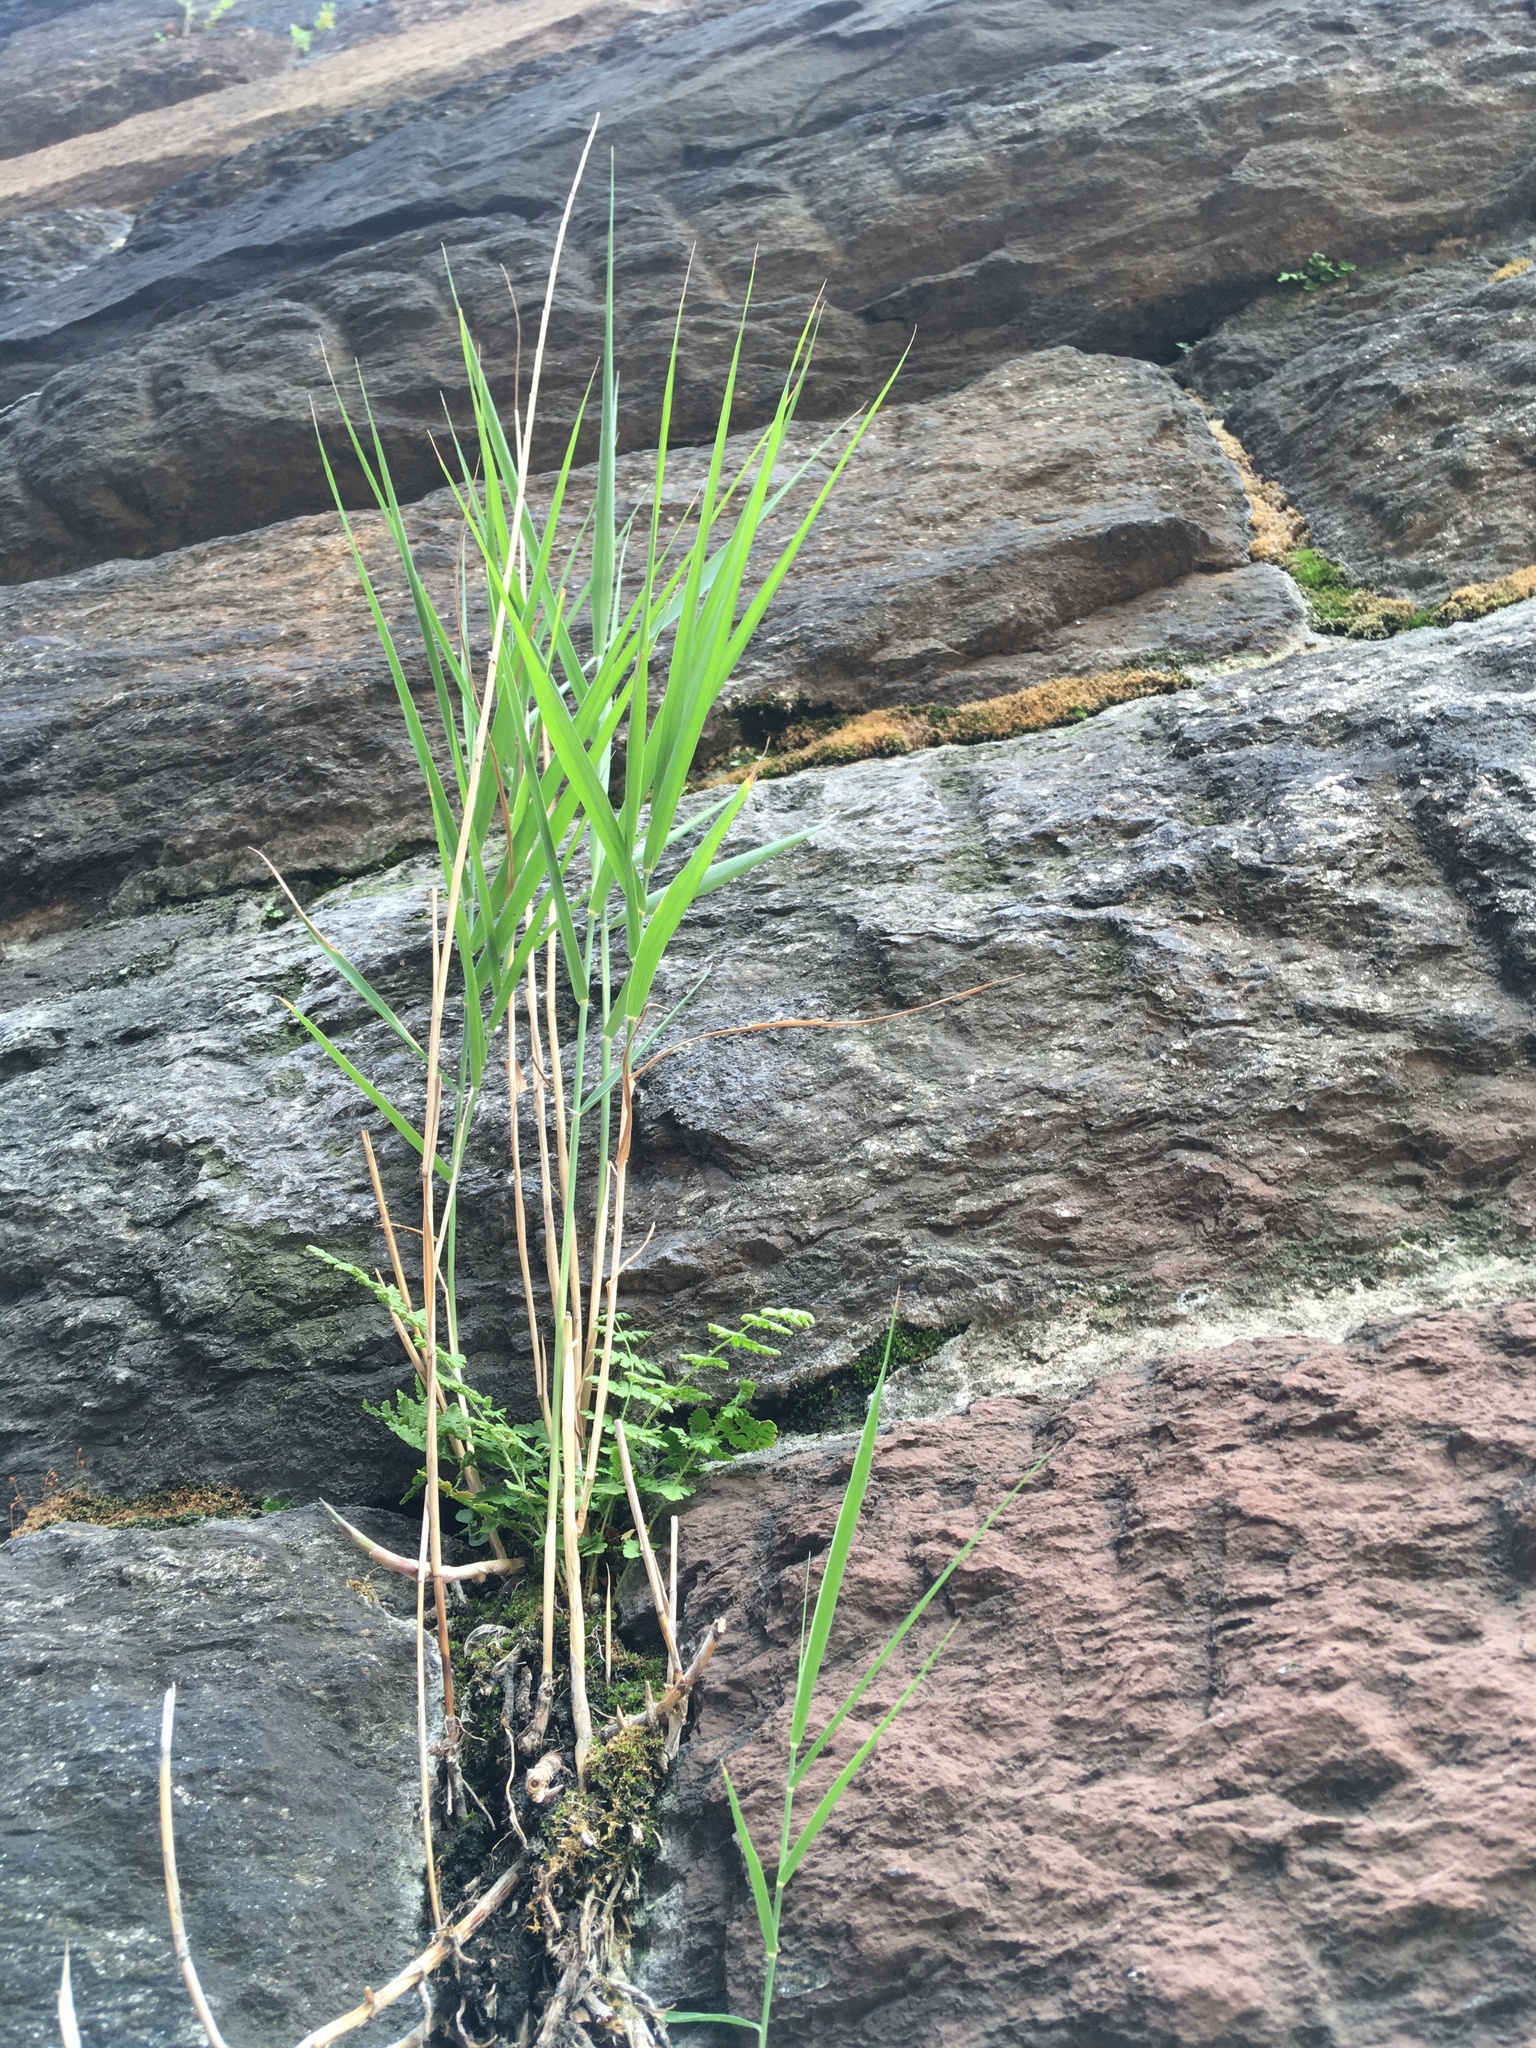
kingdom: Plantae
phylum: Tracheophyta
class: Liliopsida
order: Poales
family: Poaceae
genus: Phragmites
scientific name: Phragmites australis
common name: Common reed
